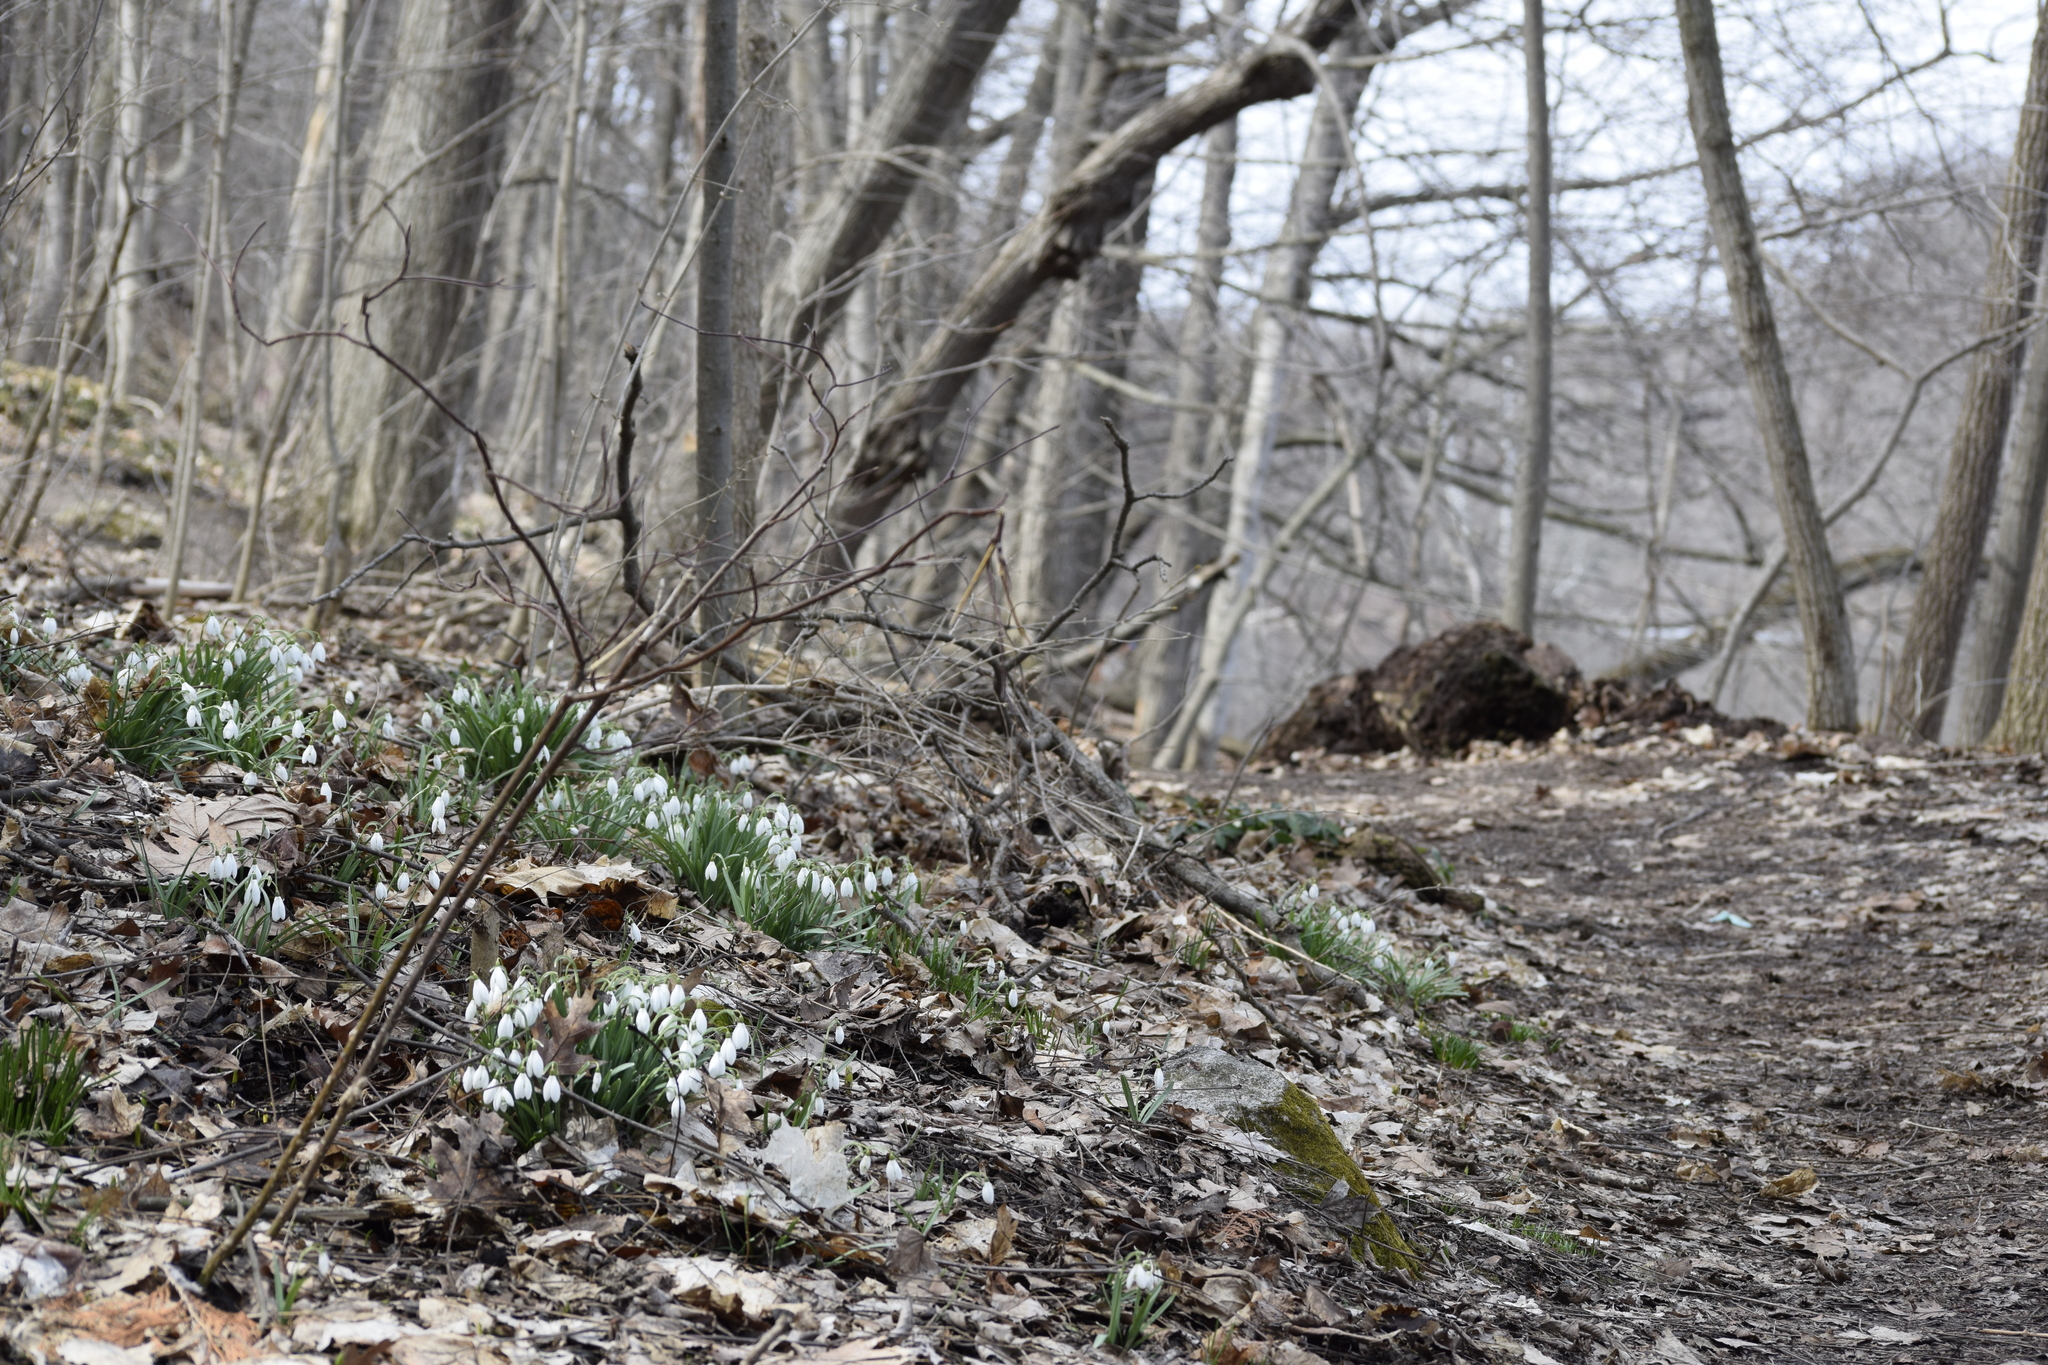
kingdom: Plantae
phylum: Tracheophyta
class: Liliopsida
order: Asparagales
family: Amaryllidaceae
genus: Galanthus
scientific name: Galanthus nivalis
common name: Snowdrop
